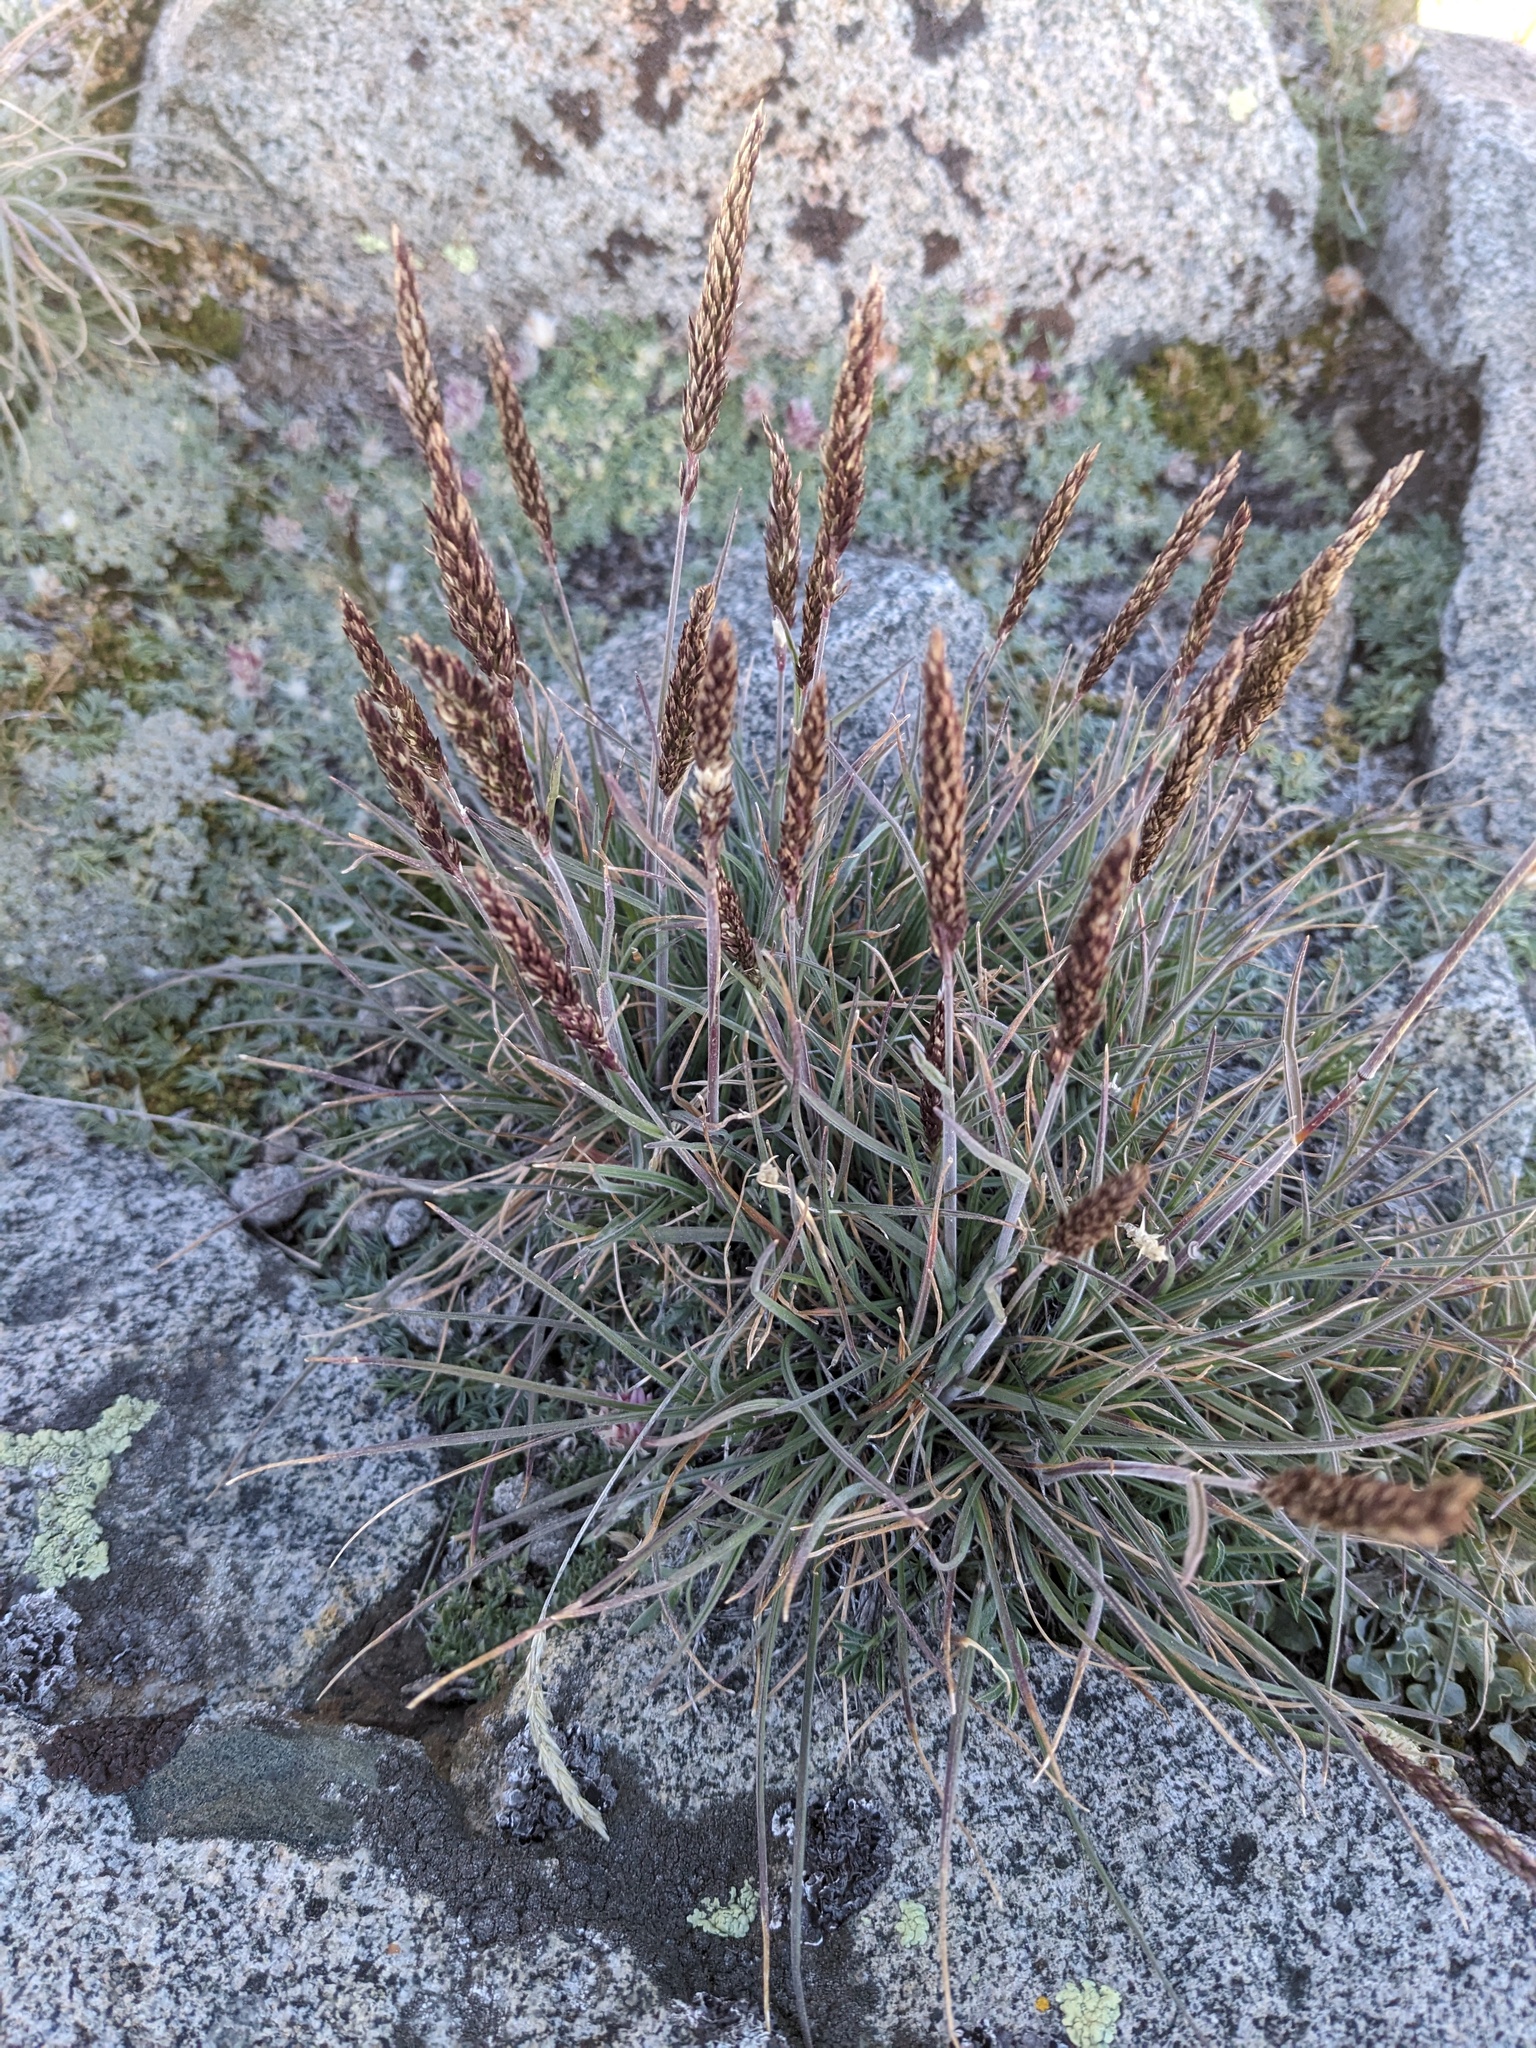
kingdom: Plantae
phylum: Tracheophyta
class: Liliopsida
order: Poales
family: Poaceae
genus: Koeleria
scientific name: Koeleria macrantha
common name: Crested hair-grass
